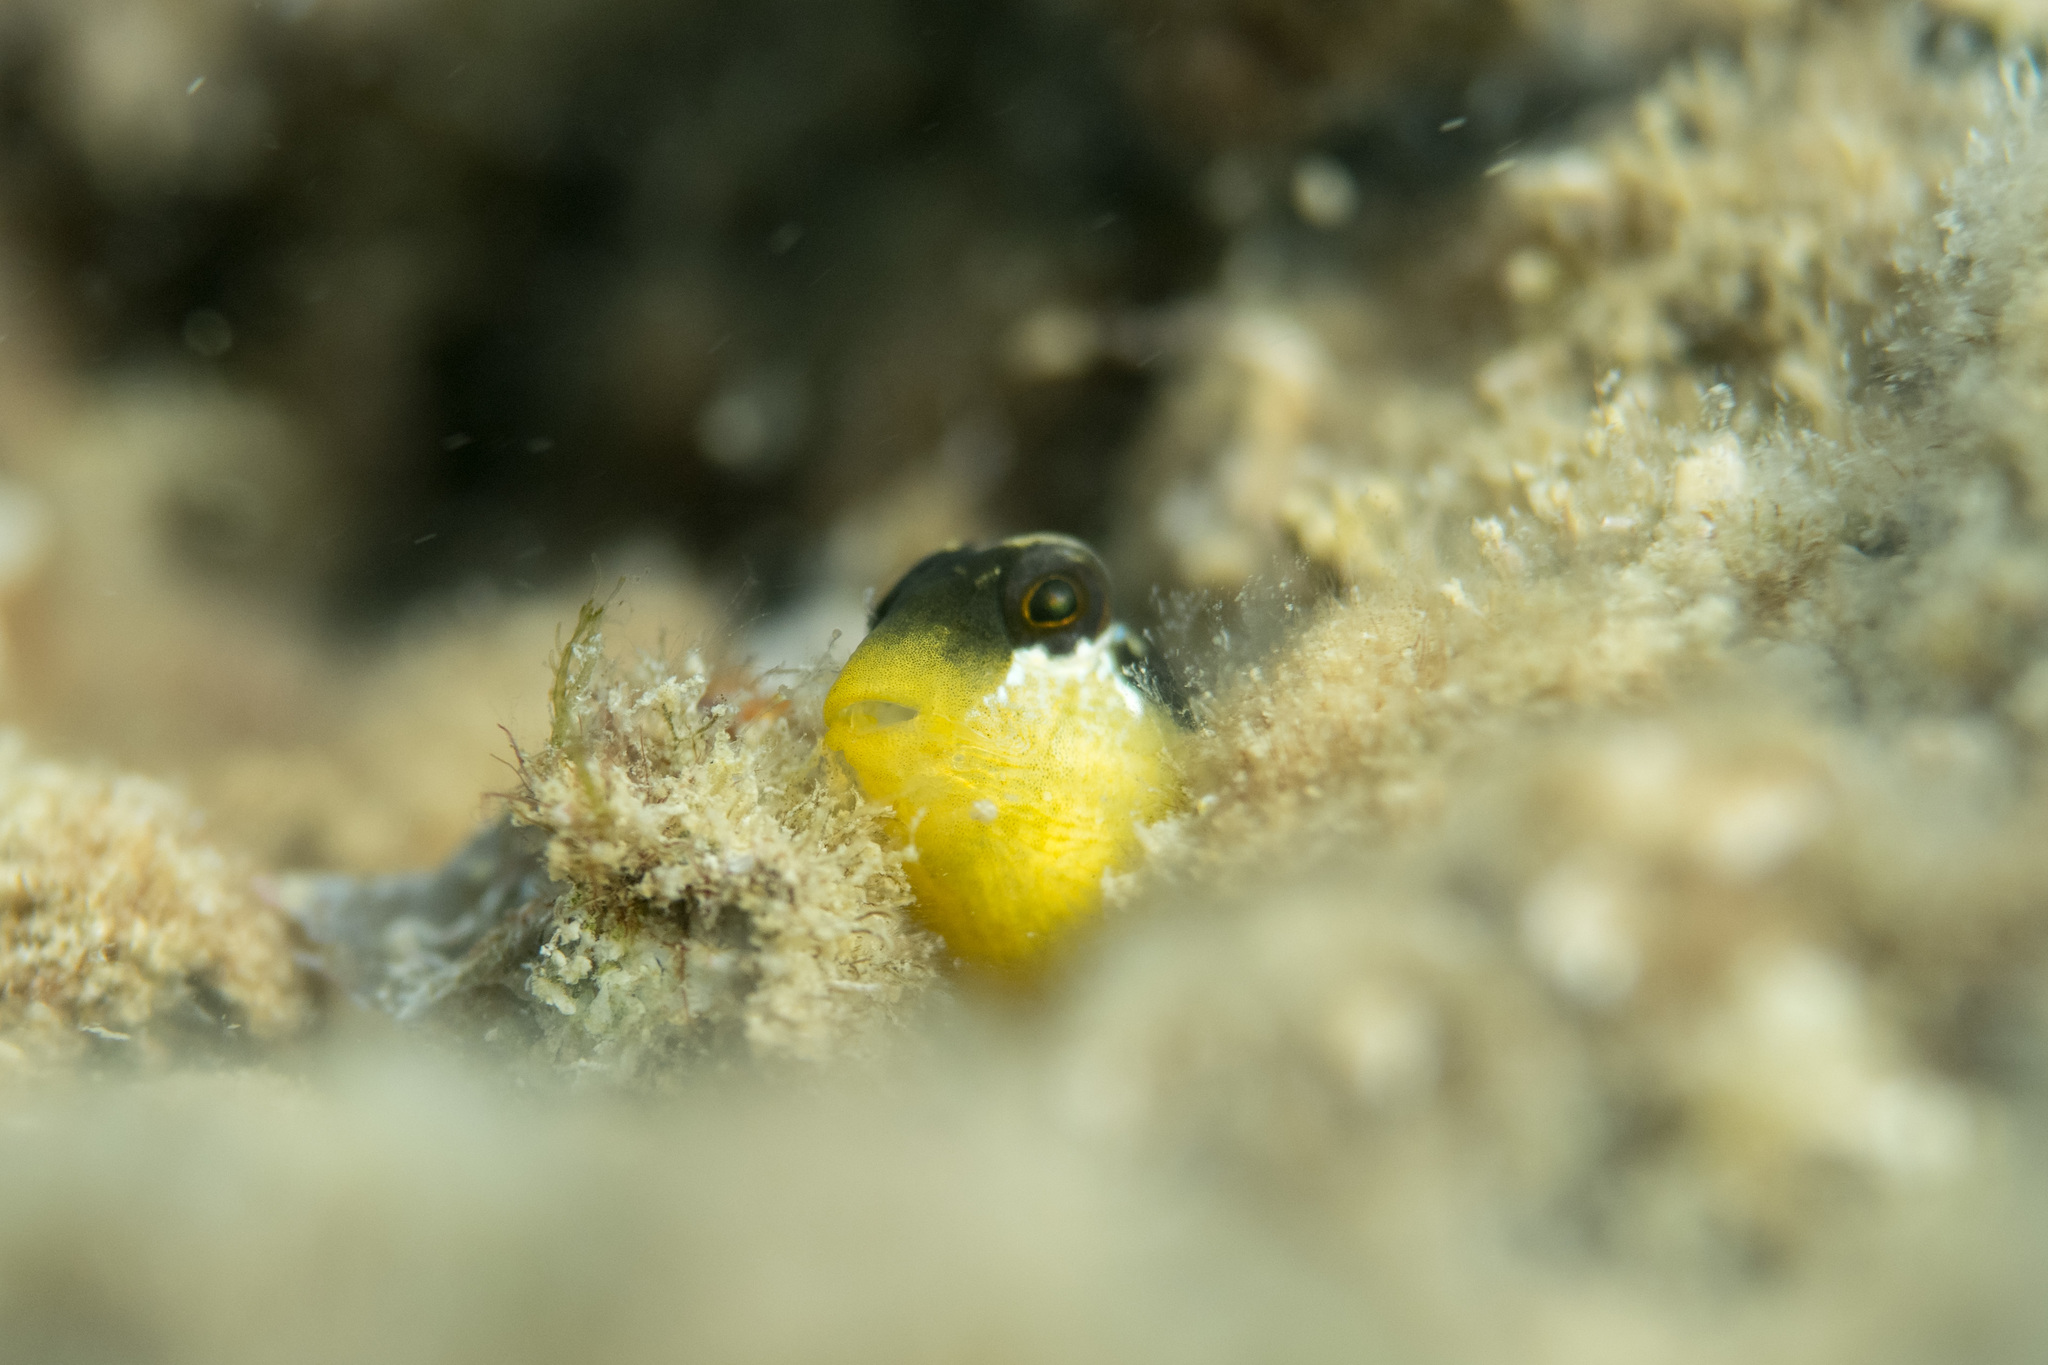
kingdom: Animalia
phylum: Chordata
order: Perciformes
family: Blenniidae
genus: Microlipophrys
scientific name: Microlipophrys dalmatinus
